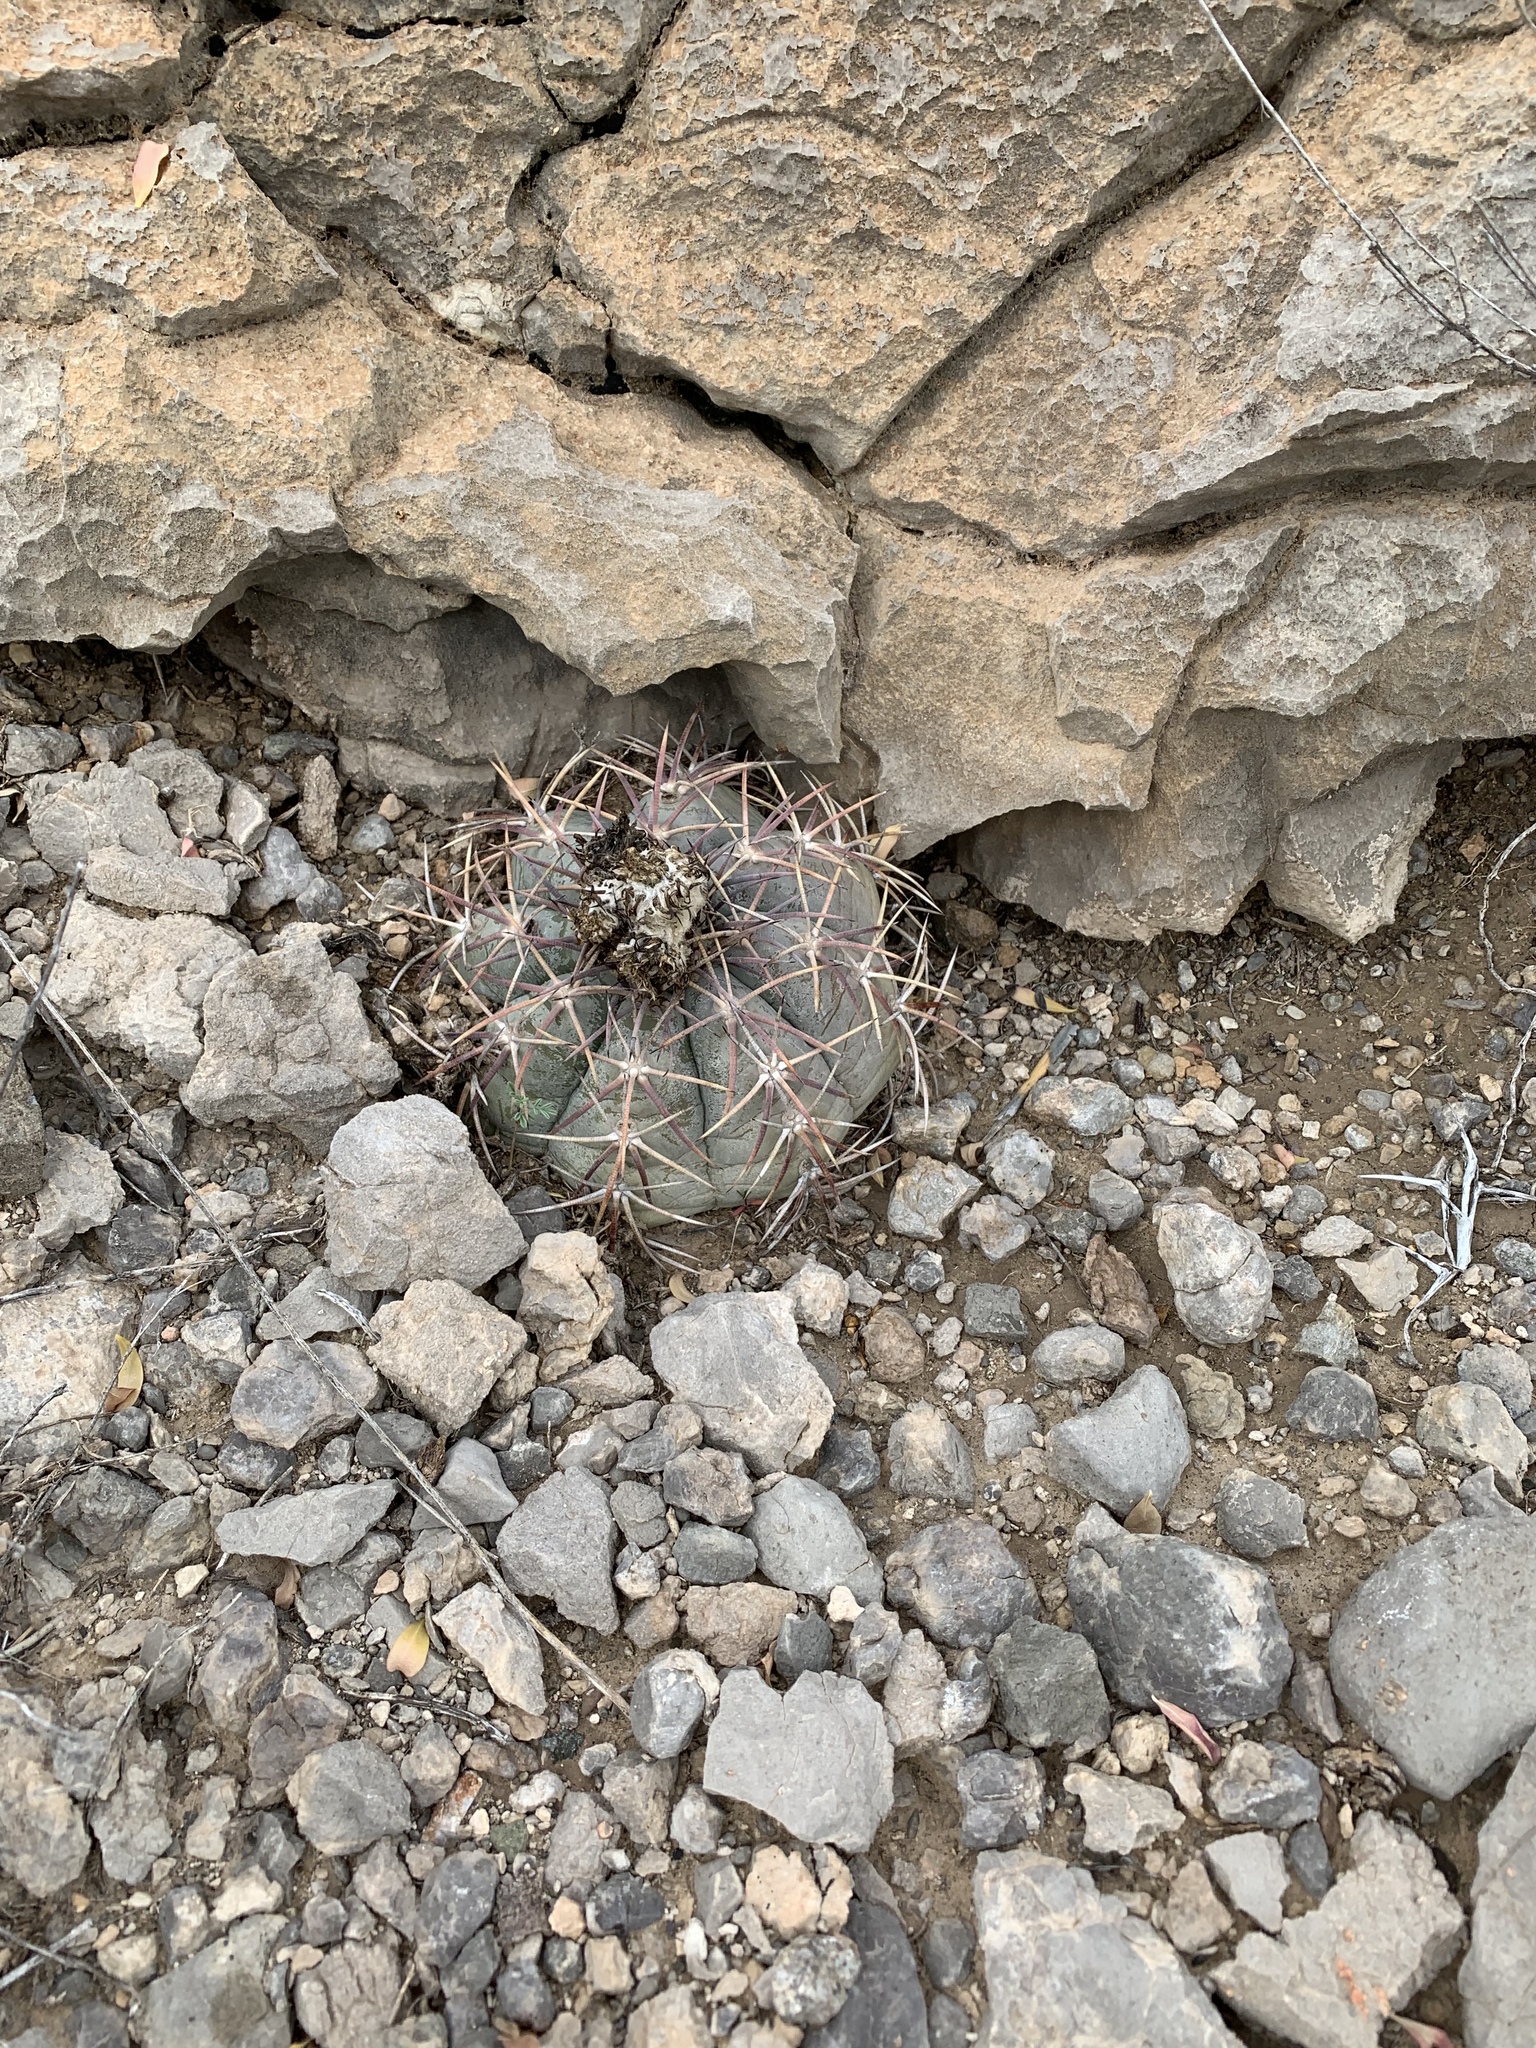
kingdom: Plantae
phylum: Tracheophyta
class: Magnoliopsida
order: Caryophyllales
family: Cactaceae
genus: Echinocactus
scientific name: Echinocactus horizonthalonius
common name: Devilshead
